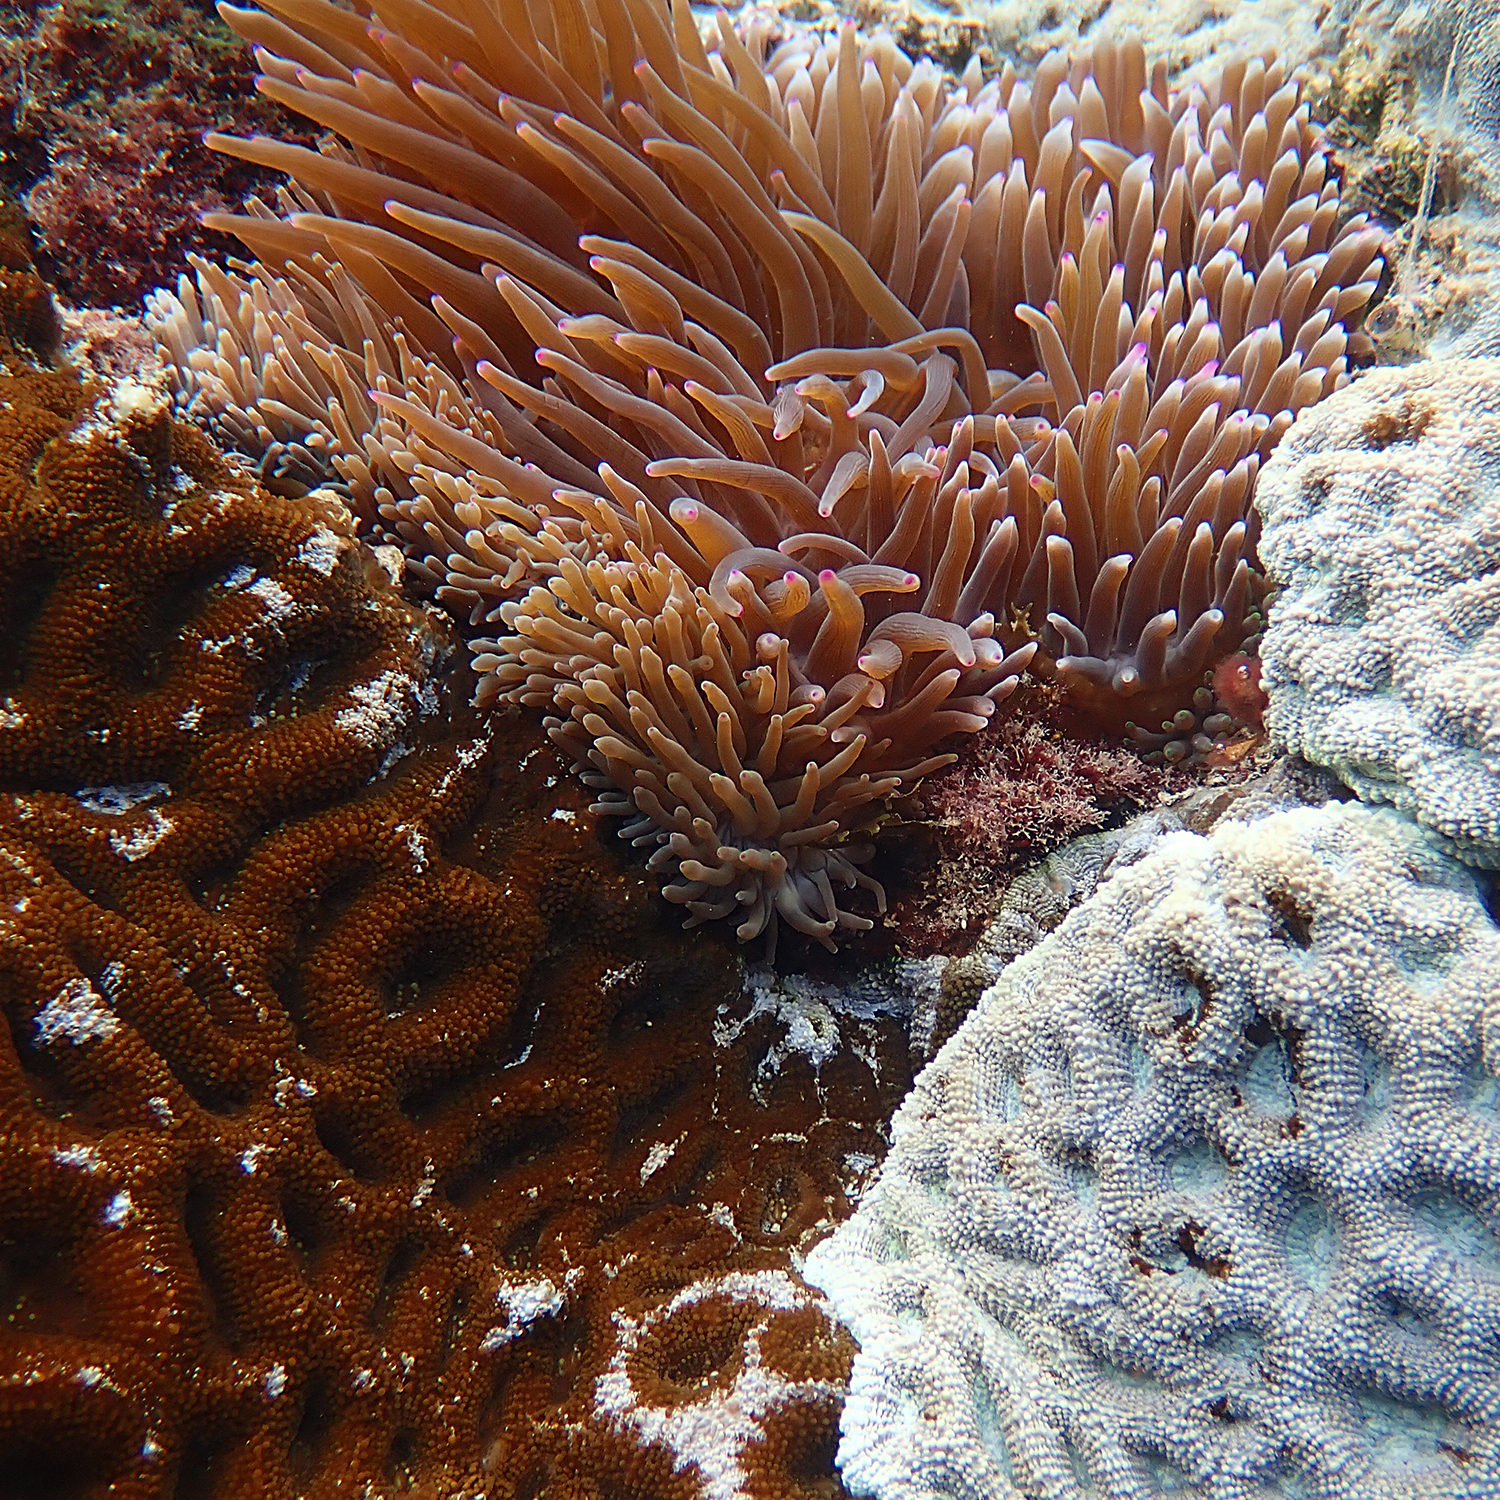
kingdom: Animalia
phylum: Cnidaria
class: Anthozoa
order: Scleractinia
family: Lobophylliidae
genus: Homophyllia
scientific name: Homophyllia bowerbanki
